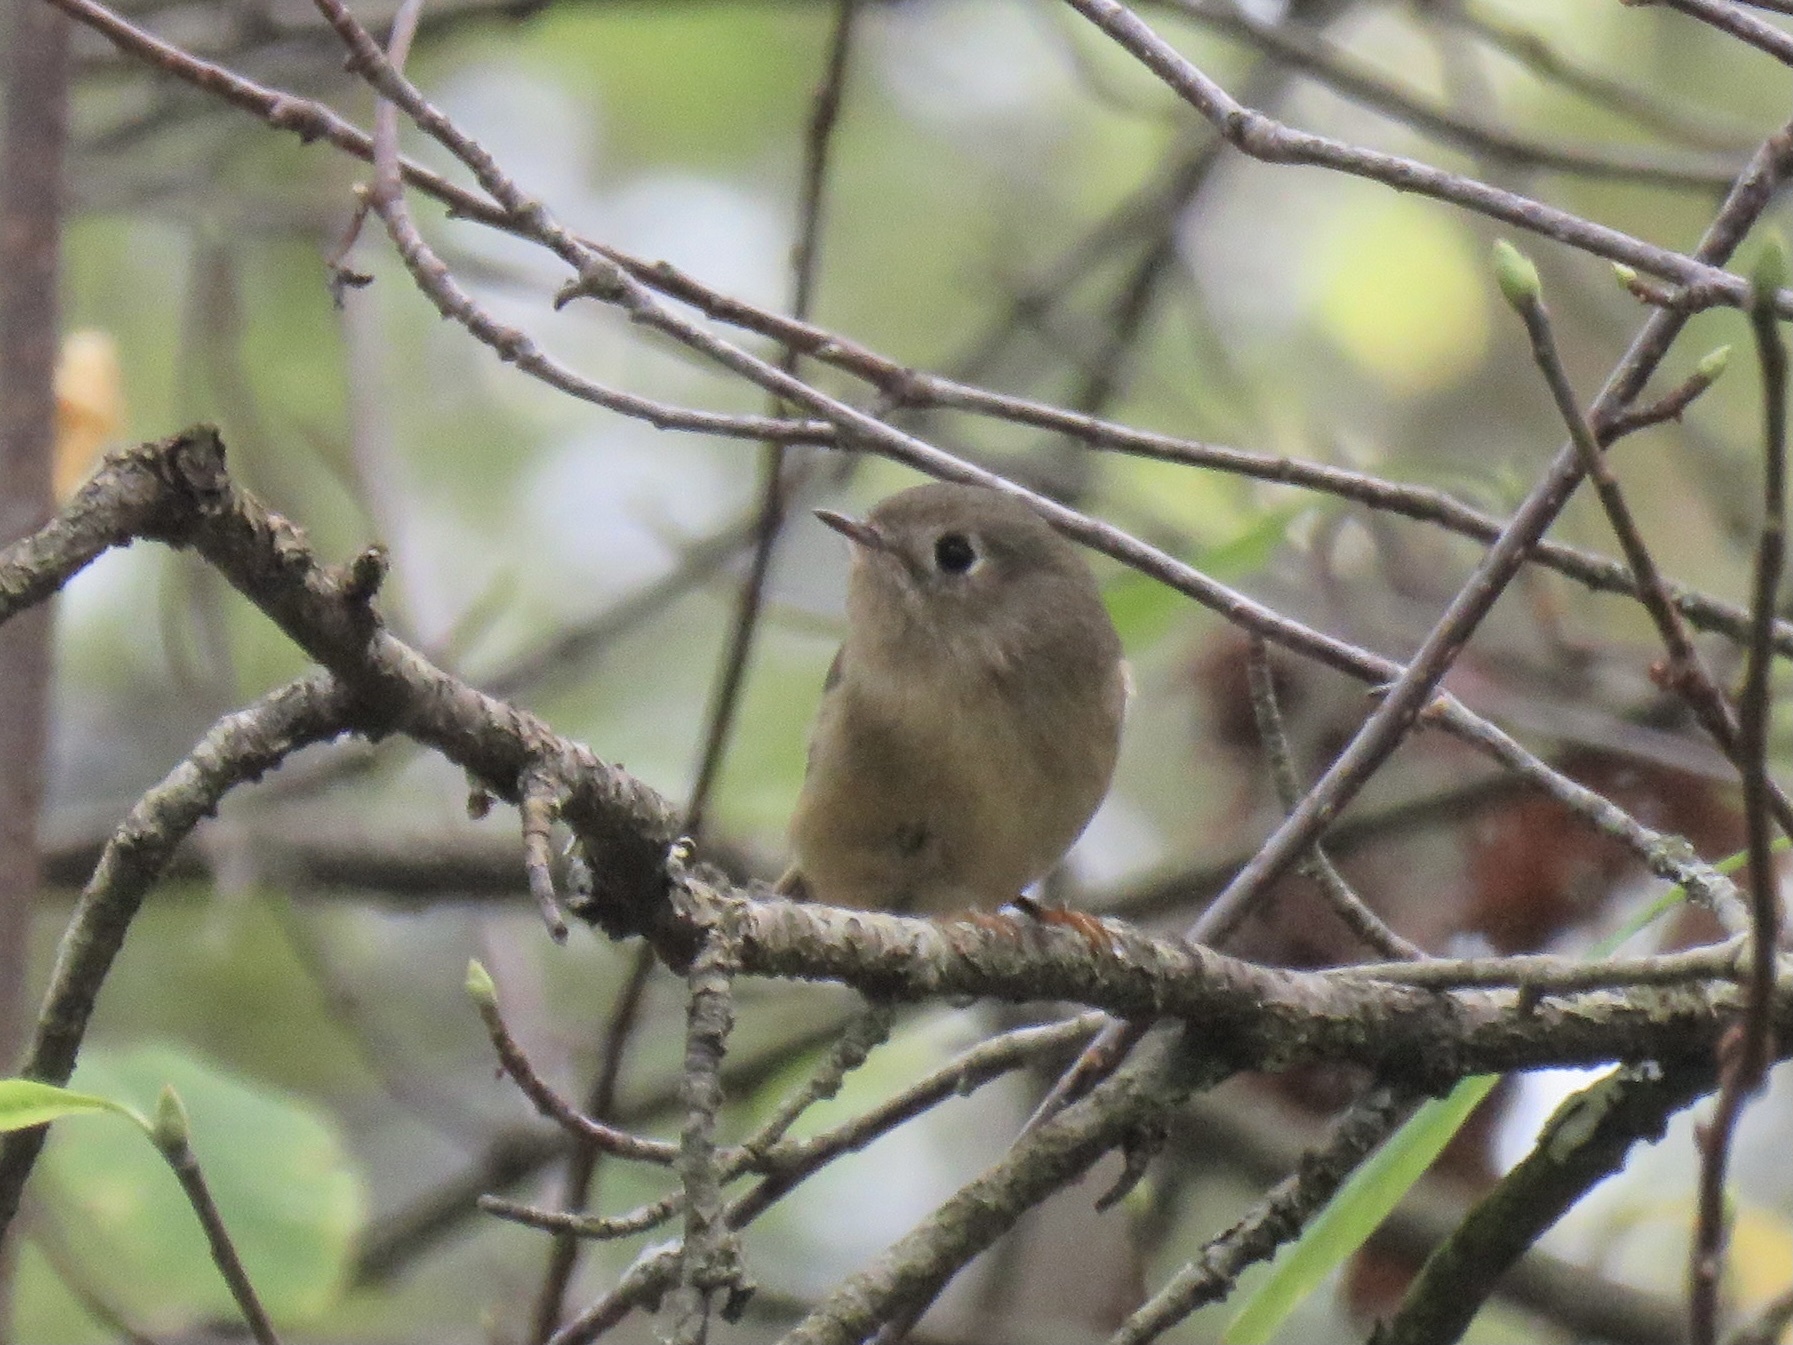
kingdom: Animalia
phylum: Chordata
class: Aves
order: Passeriformes
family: Regulidae
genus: Regulus
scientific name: Regulus calendula
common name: Ruby-crowned kinglet
